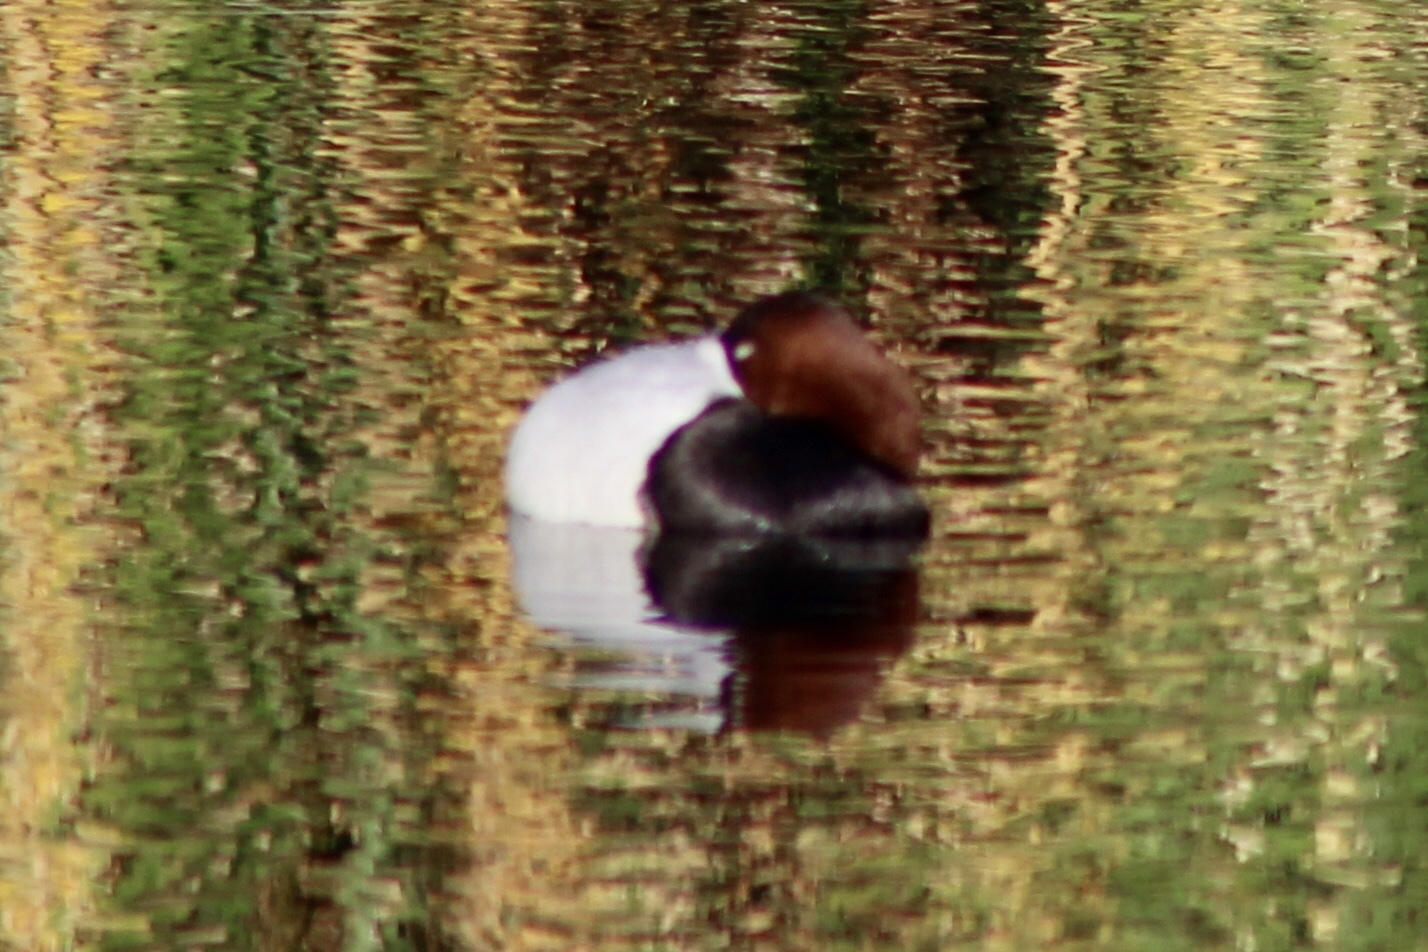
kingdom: Animalia
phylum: Chordata
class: Aves
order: Anseriformes
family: Anatidae
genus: Aythya
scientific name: Aythya valisineria
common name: Canvasback
